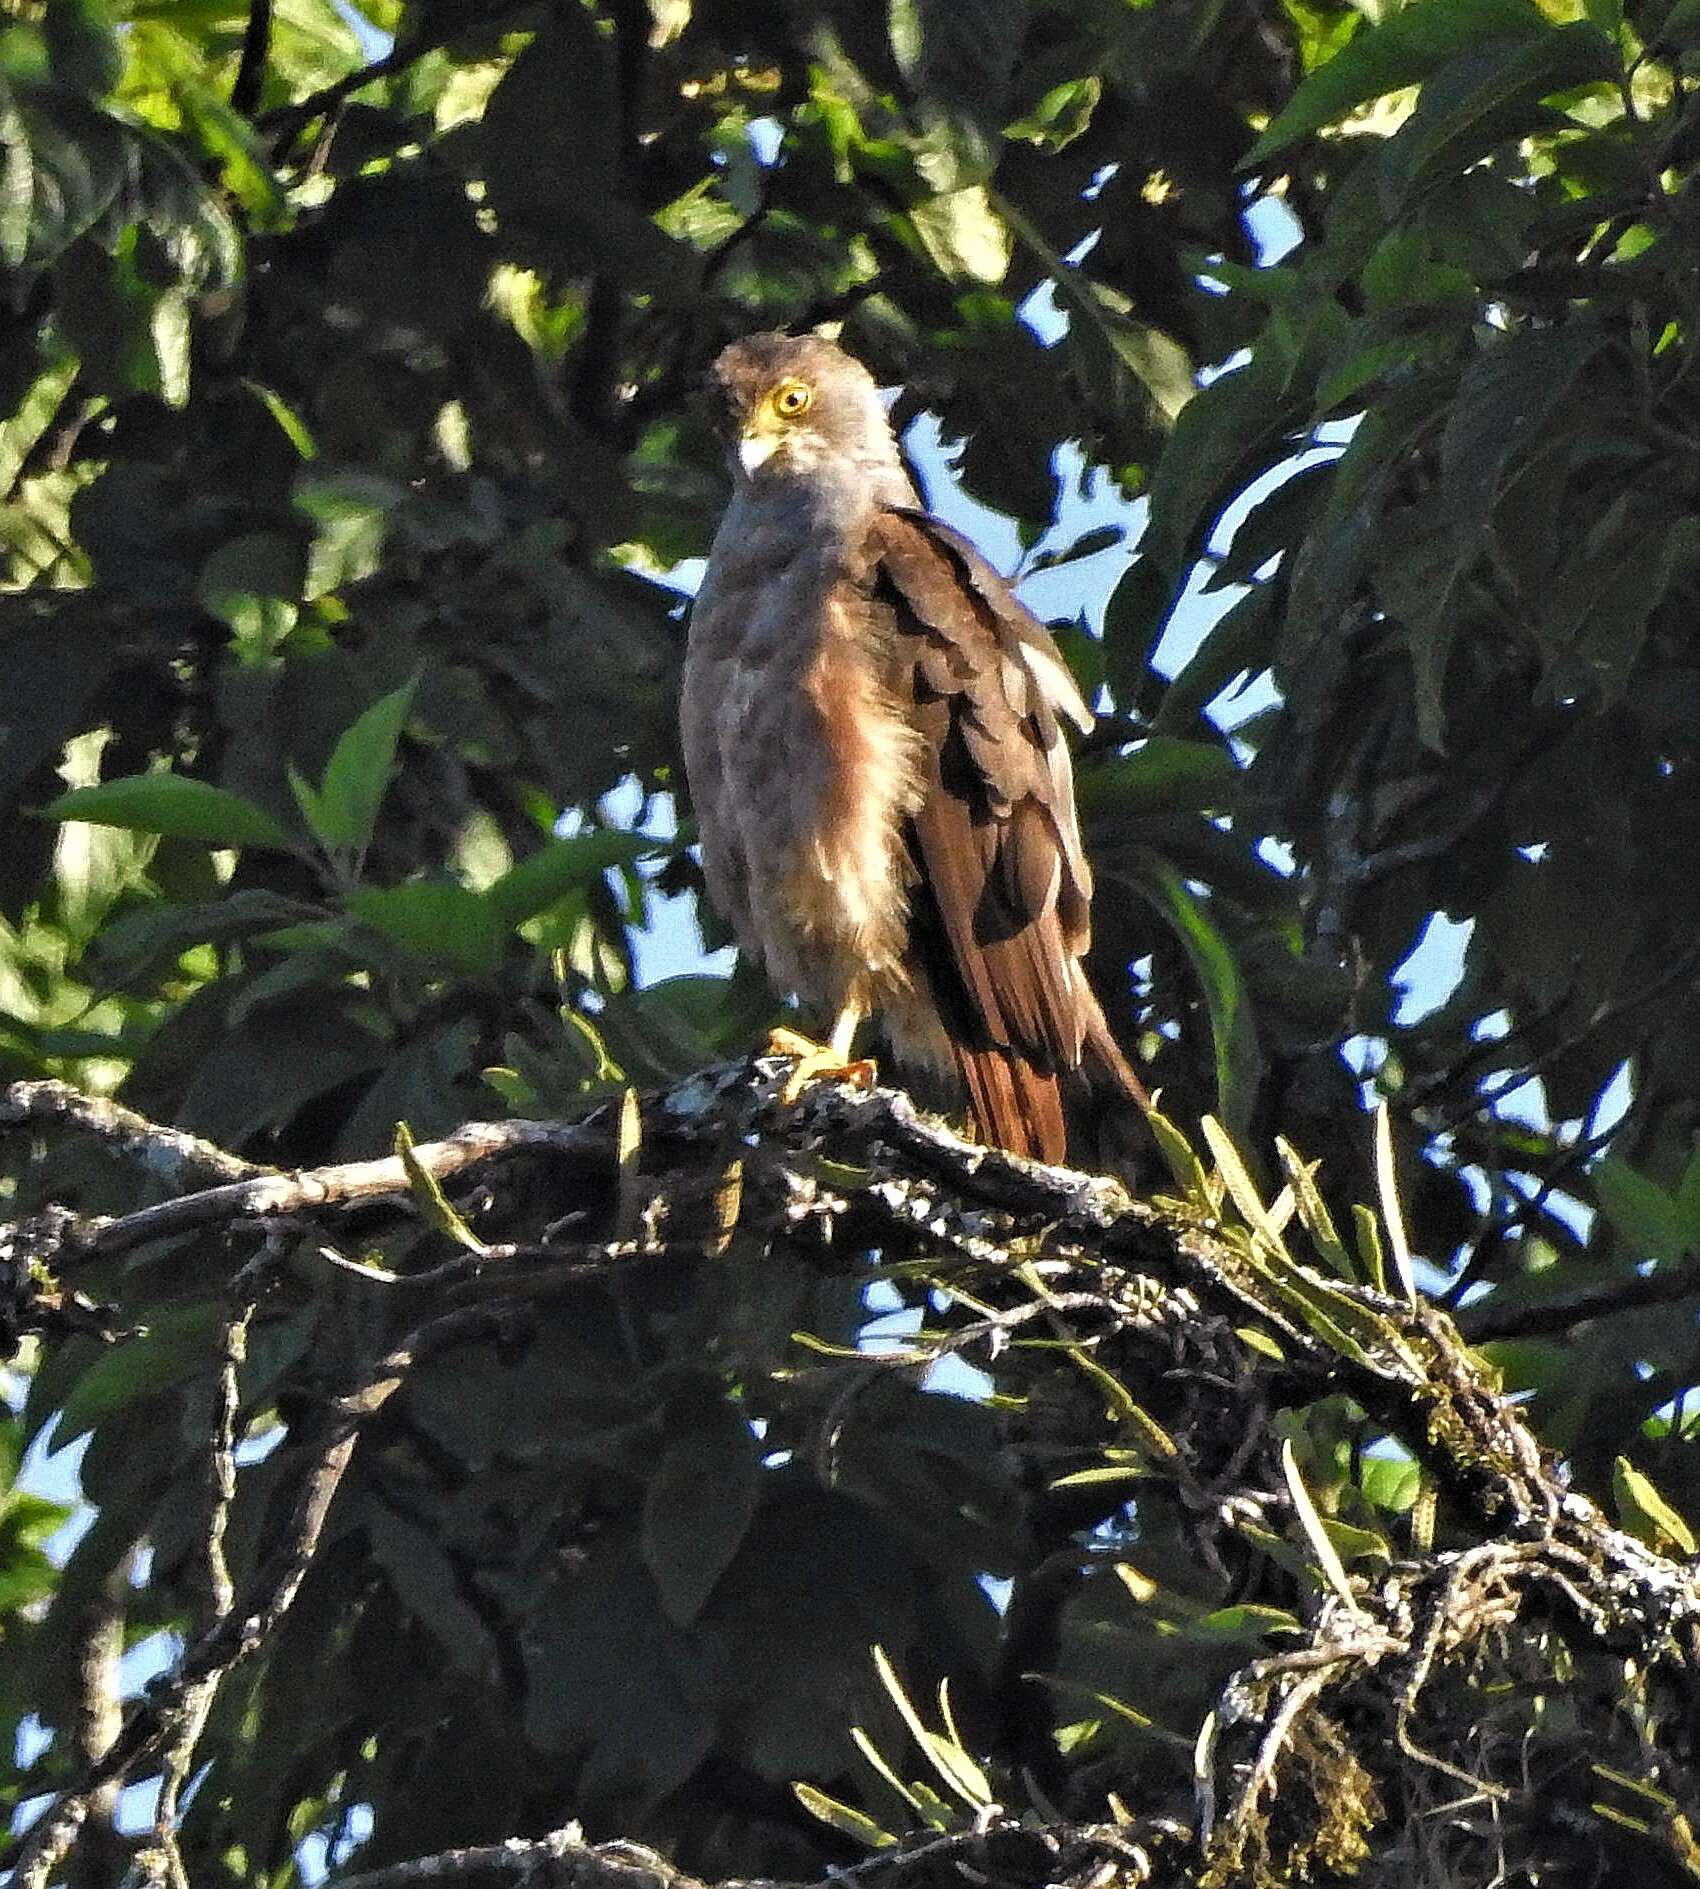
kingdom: Animalia
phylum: Chordata
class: Aves
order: Accipitriformes
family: Accipitridae
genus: Accipiter
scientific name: Accipiter bicolor
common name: Bicolored hawk
